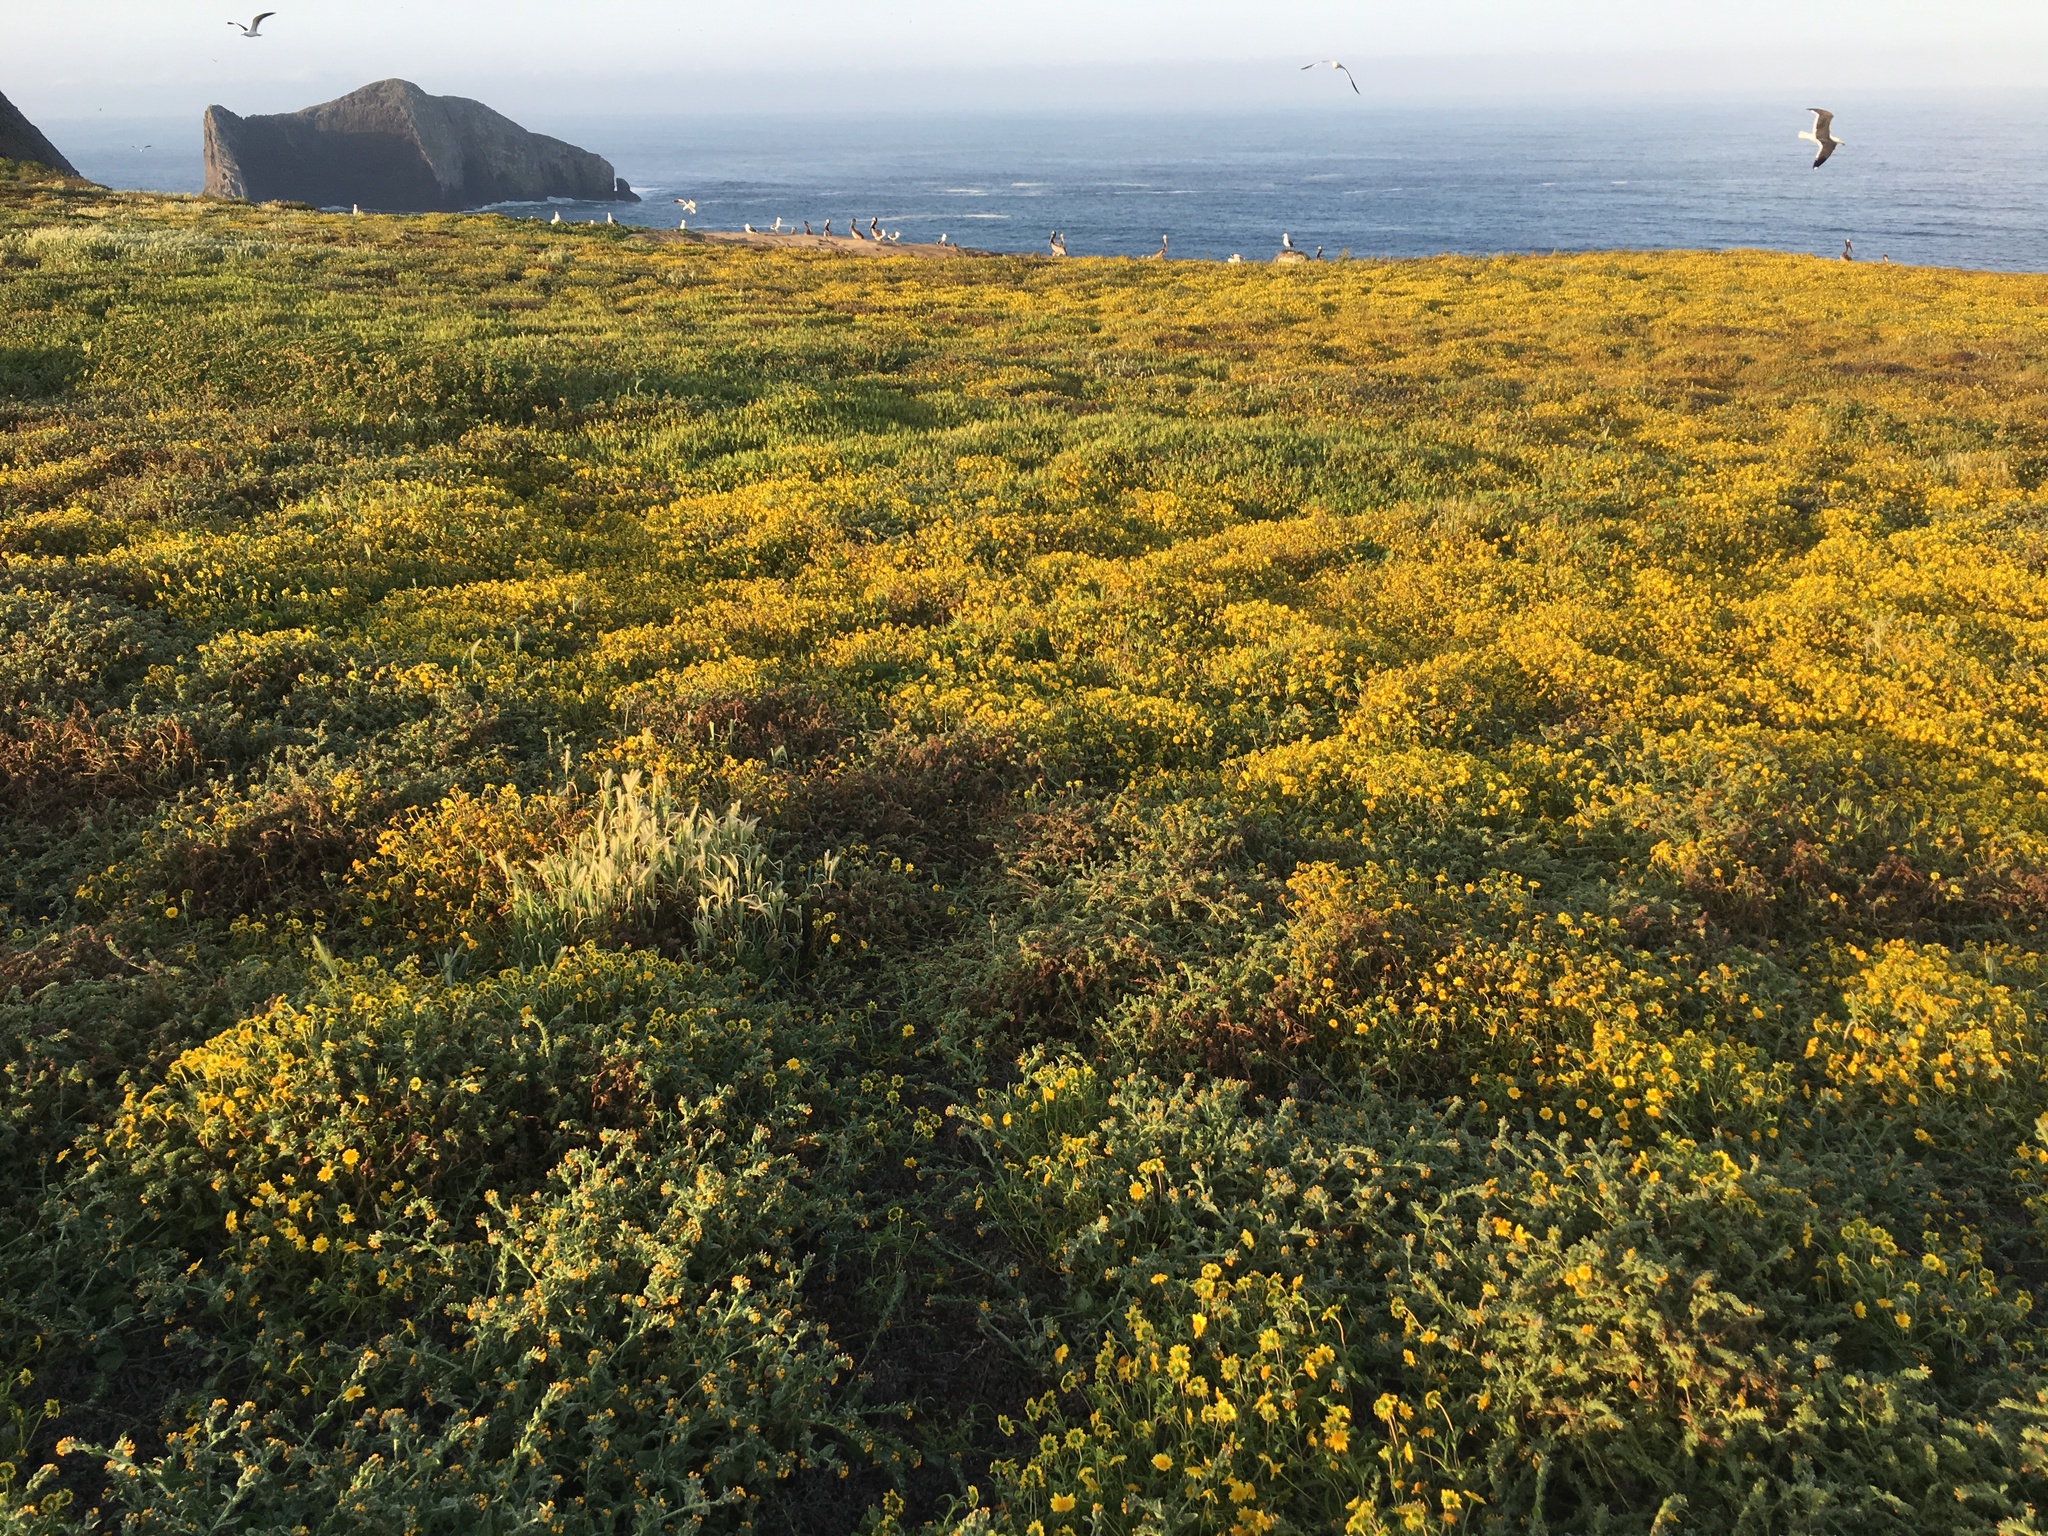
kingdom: Plantae
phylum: Tracheophyta
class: Magnoliopsida
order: Asterales
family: Asteraceae
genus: Lasthenia
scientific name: Lasthenia gracilis
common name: Common goldfields
